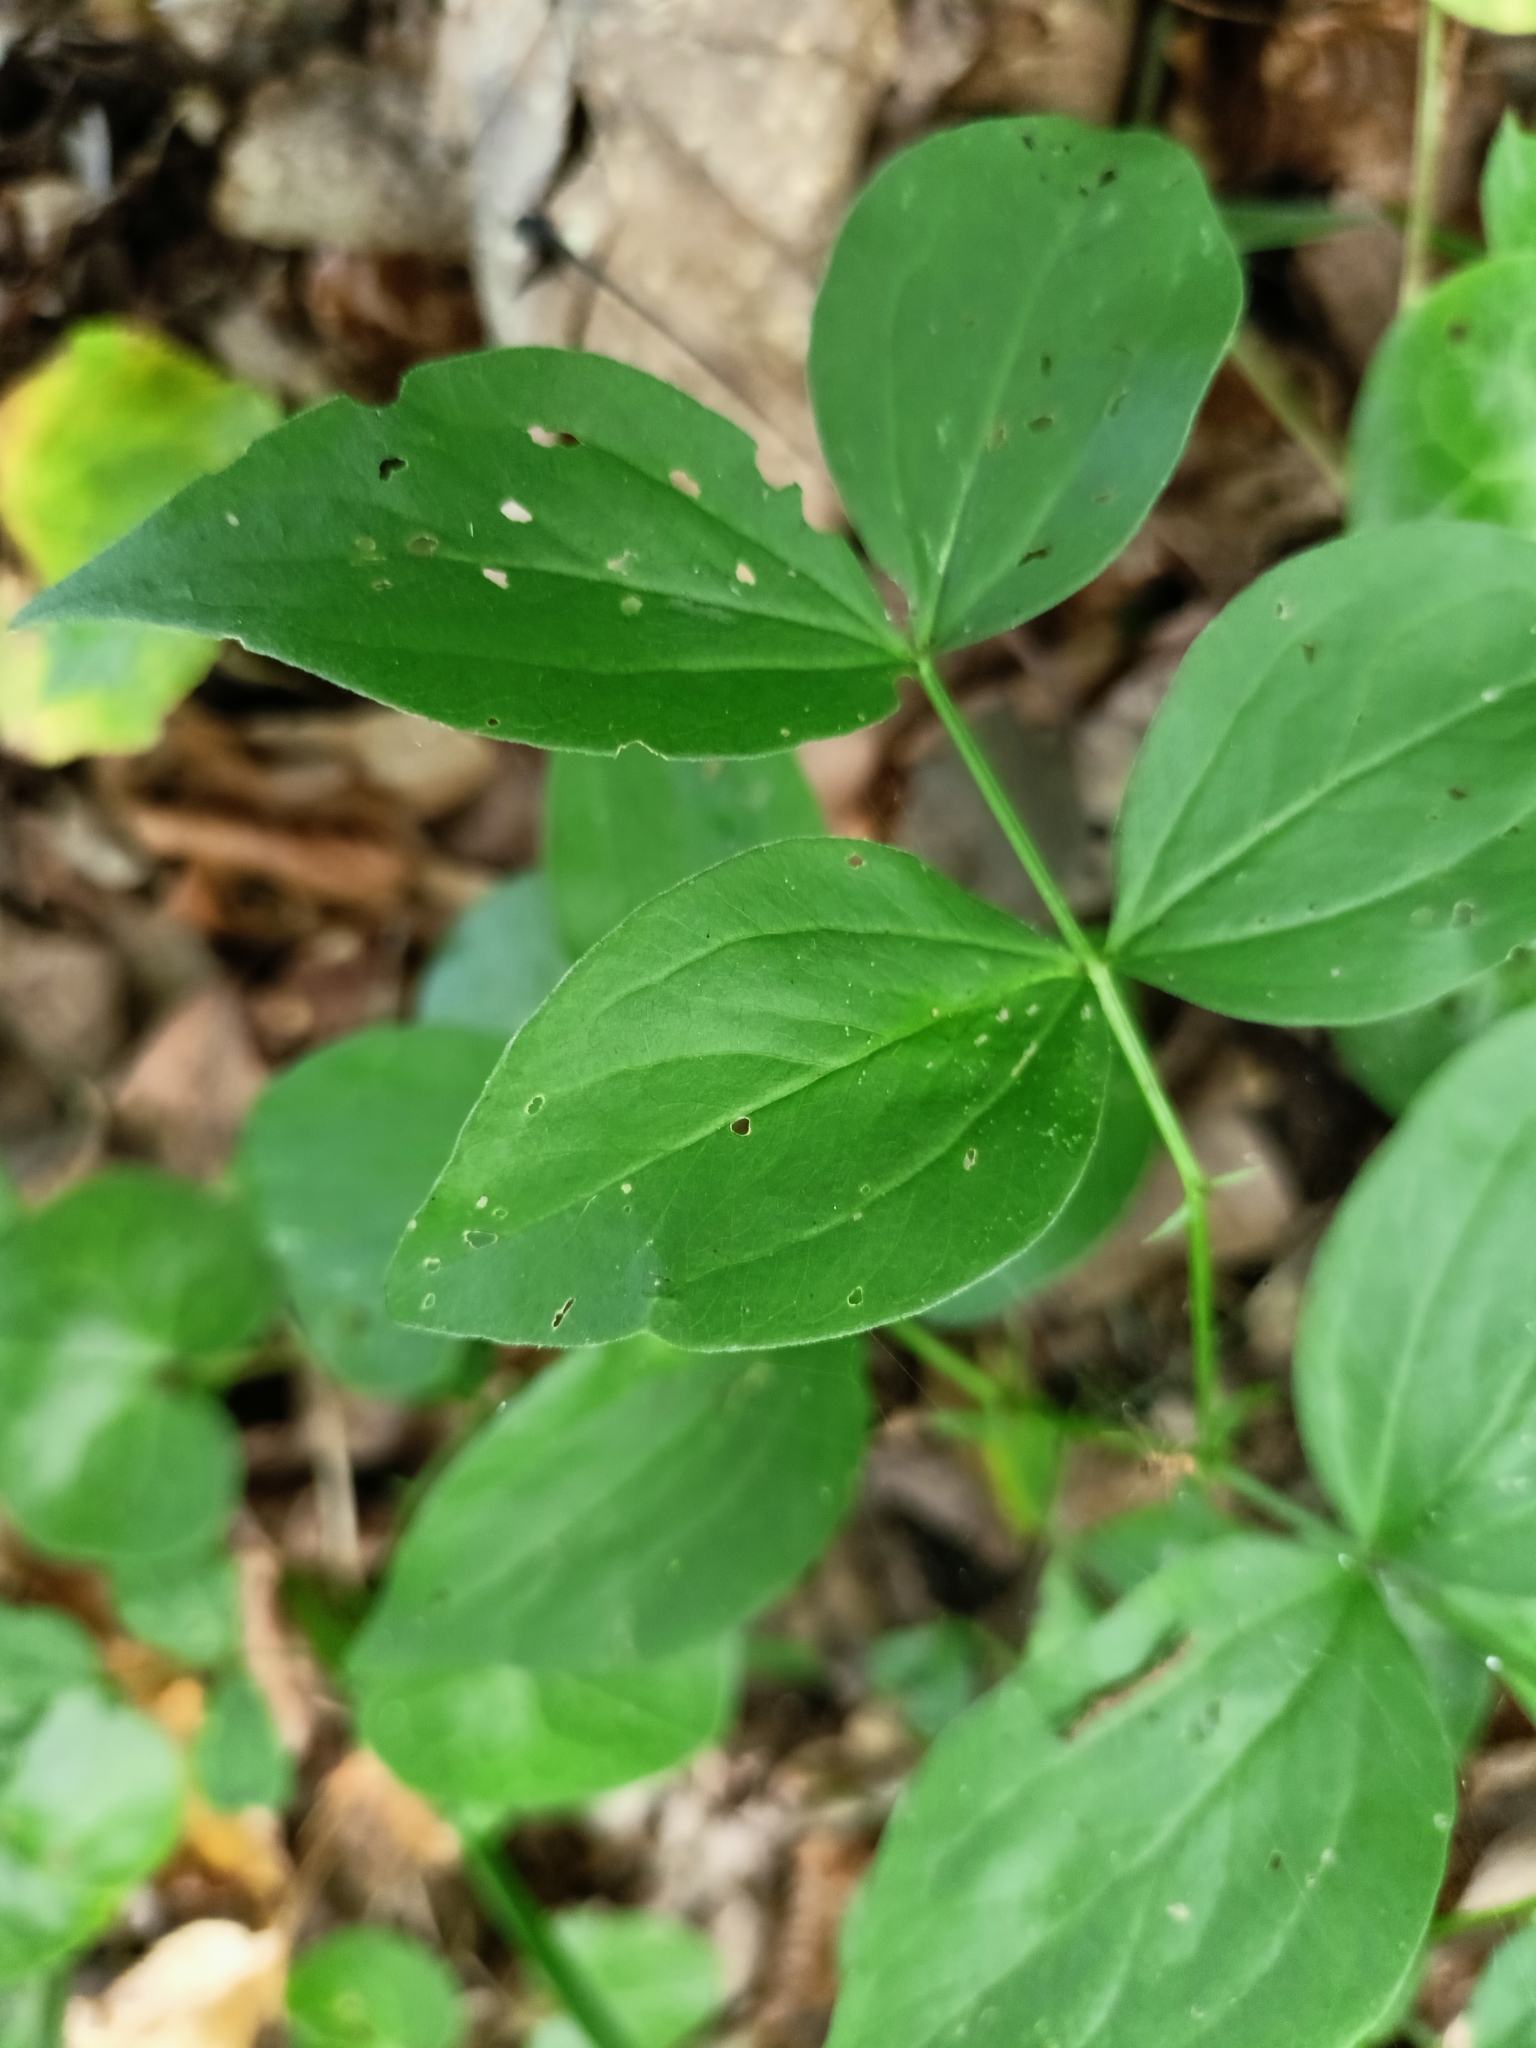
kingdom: Plantae
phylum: Tracheophyta
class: Magnoliopsida
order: Fabales
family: Fabaceae
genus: Lathyrus
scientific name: Lathyrus vernus
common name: Spring pea
